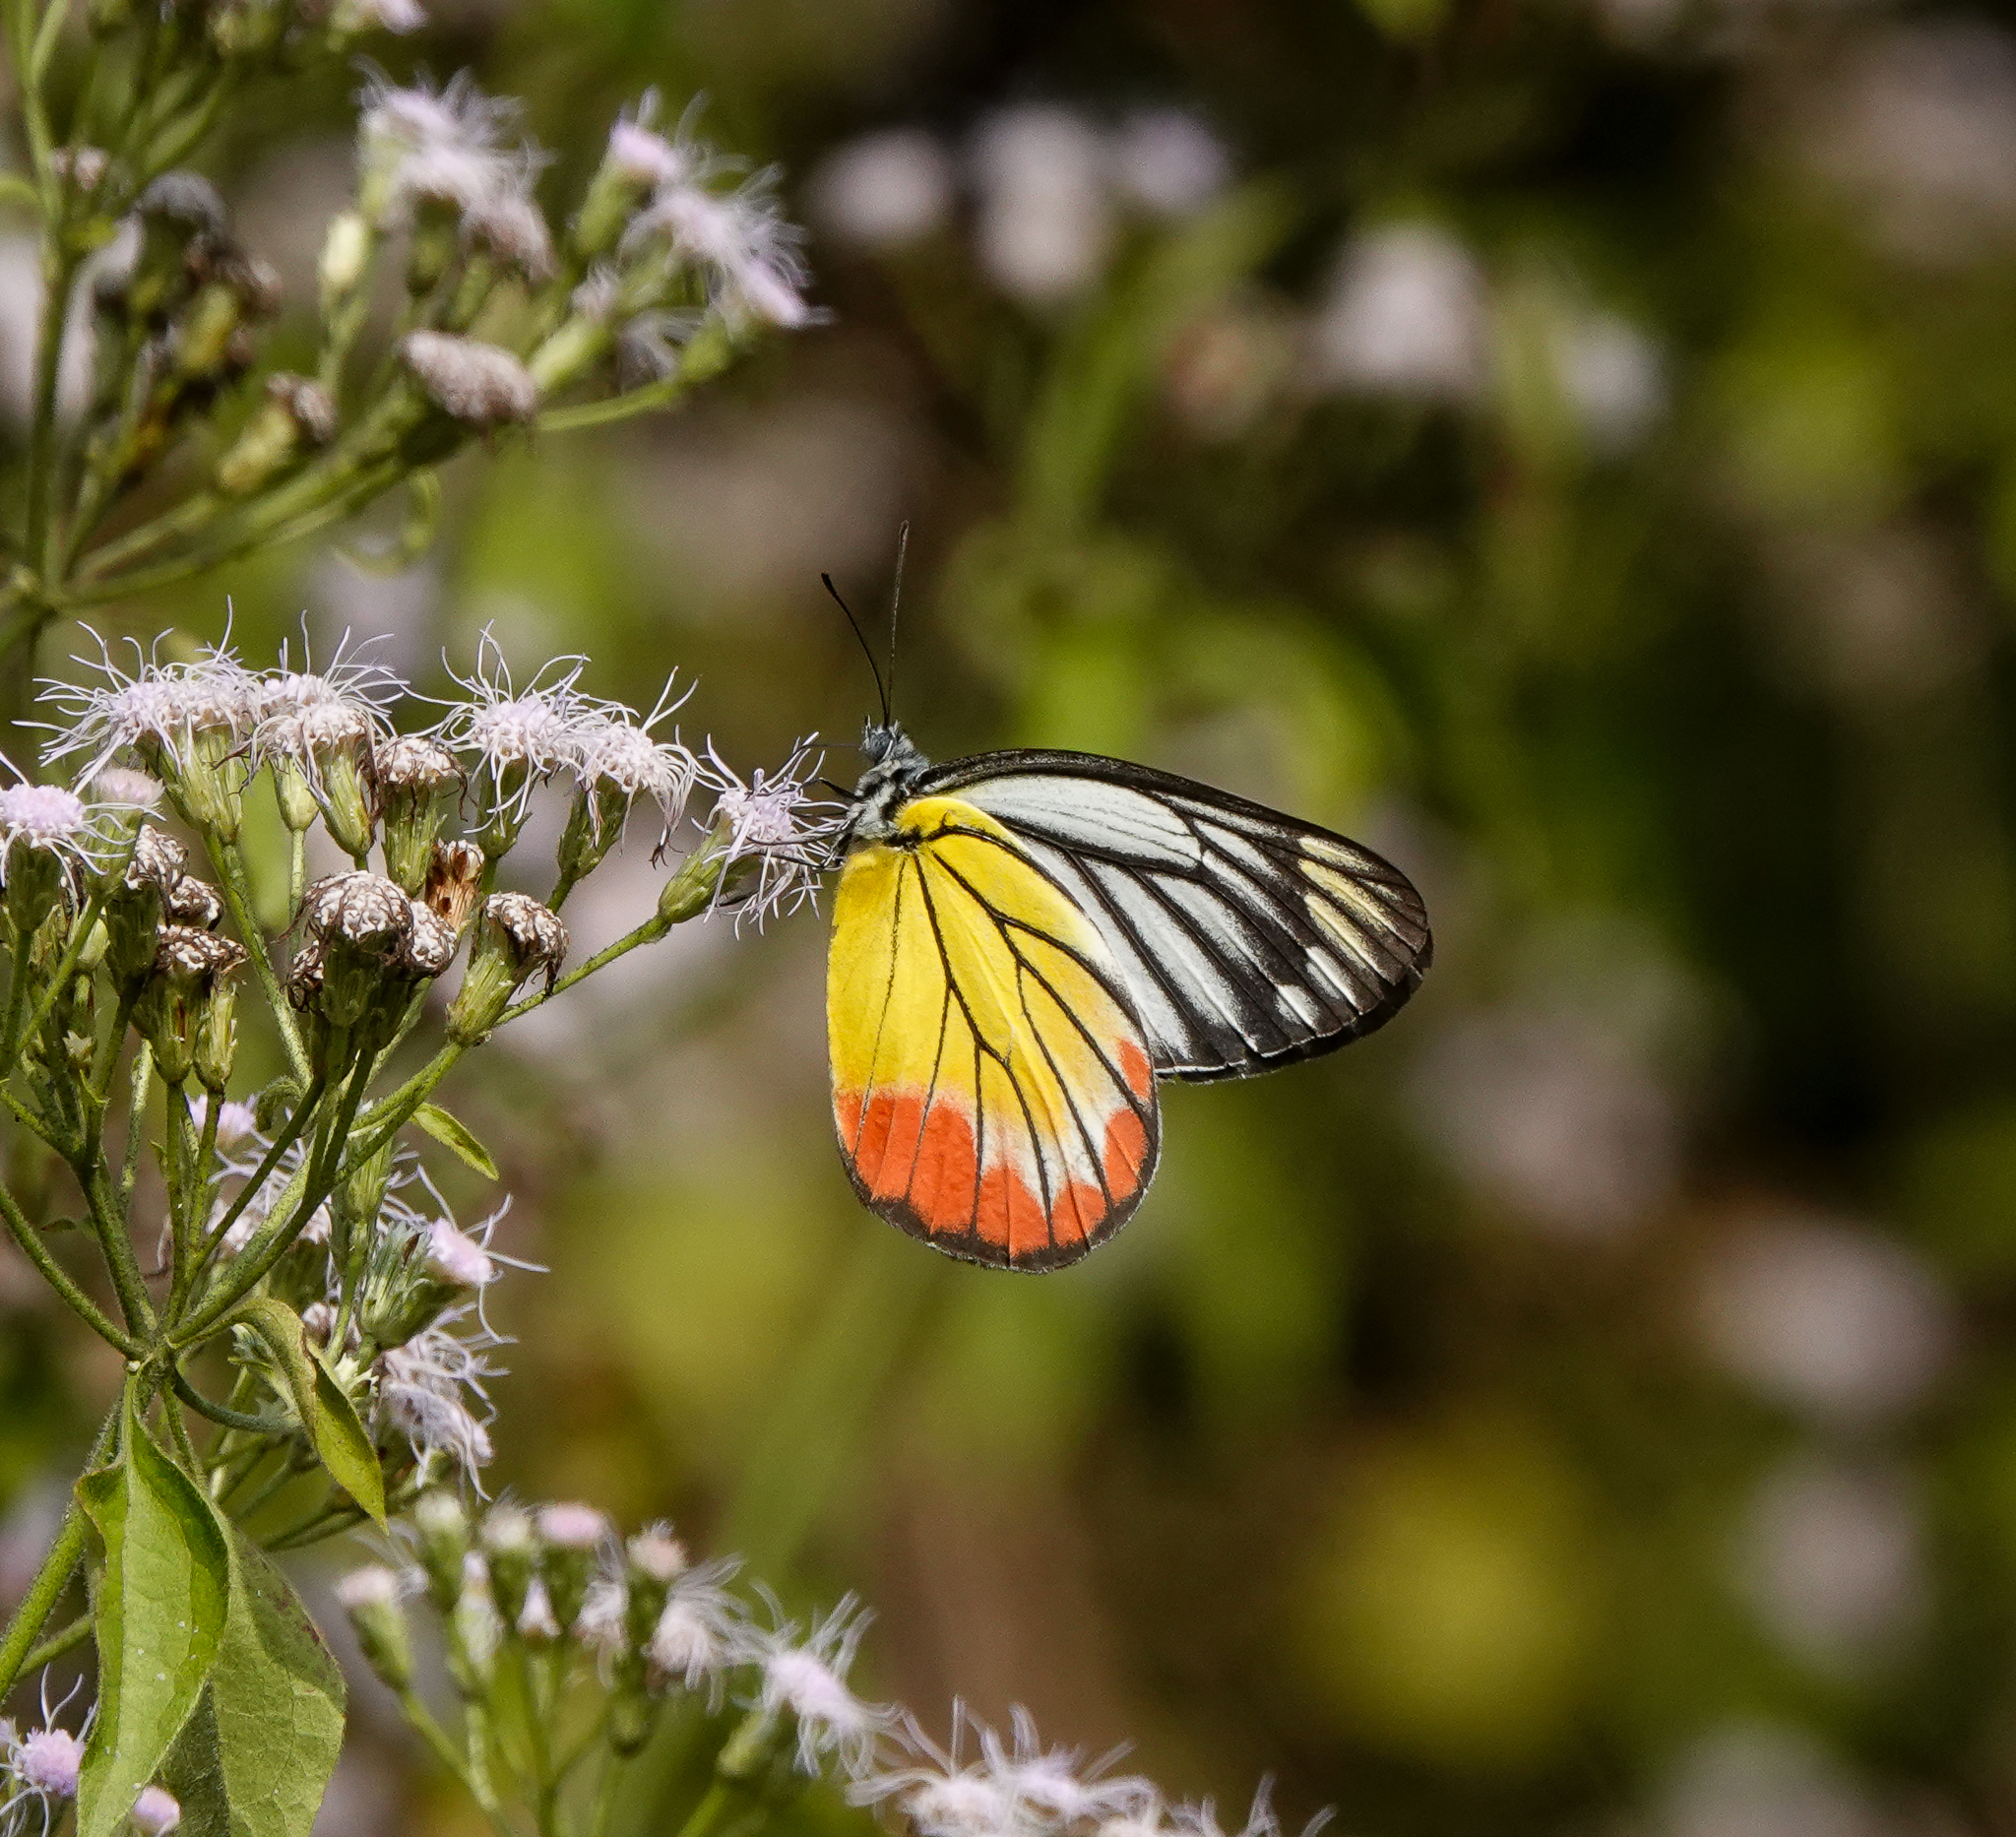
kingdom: Animalia
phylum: Arthropoda
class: Insecta
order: Lepidoptera
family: Pieridae
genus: Delias
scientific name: Delias hyparete
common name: Painted jezebel
